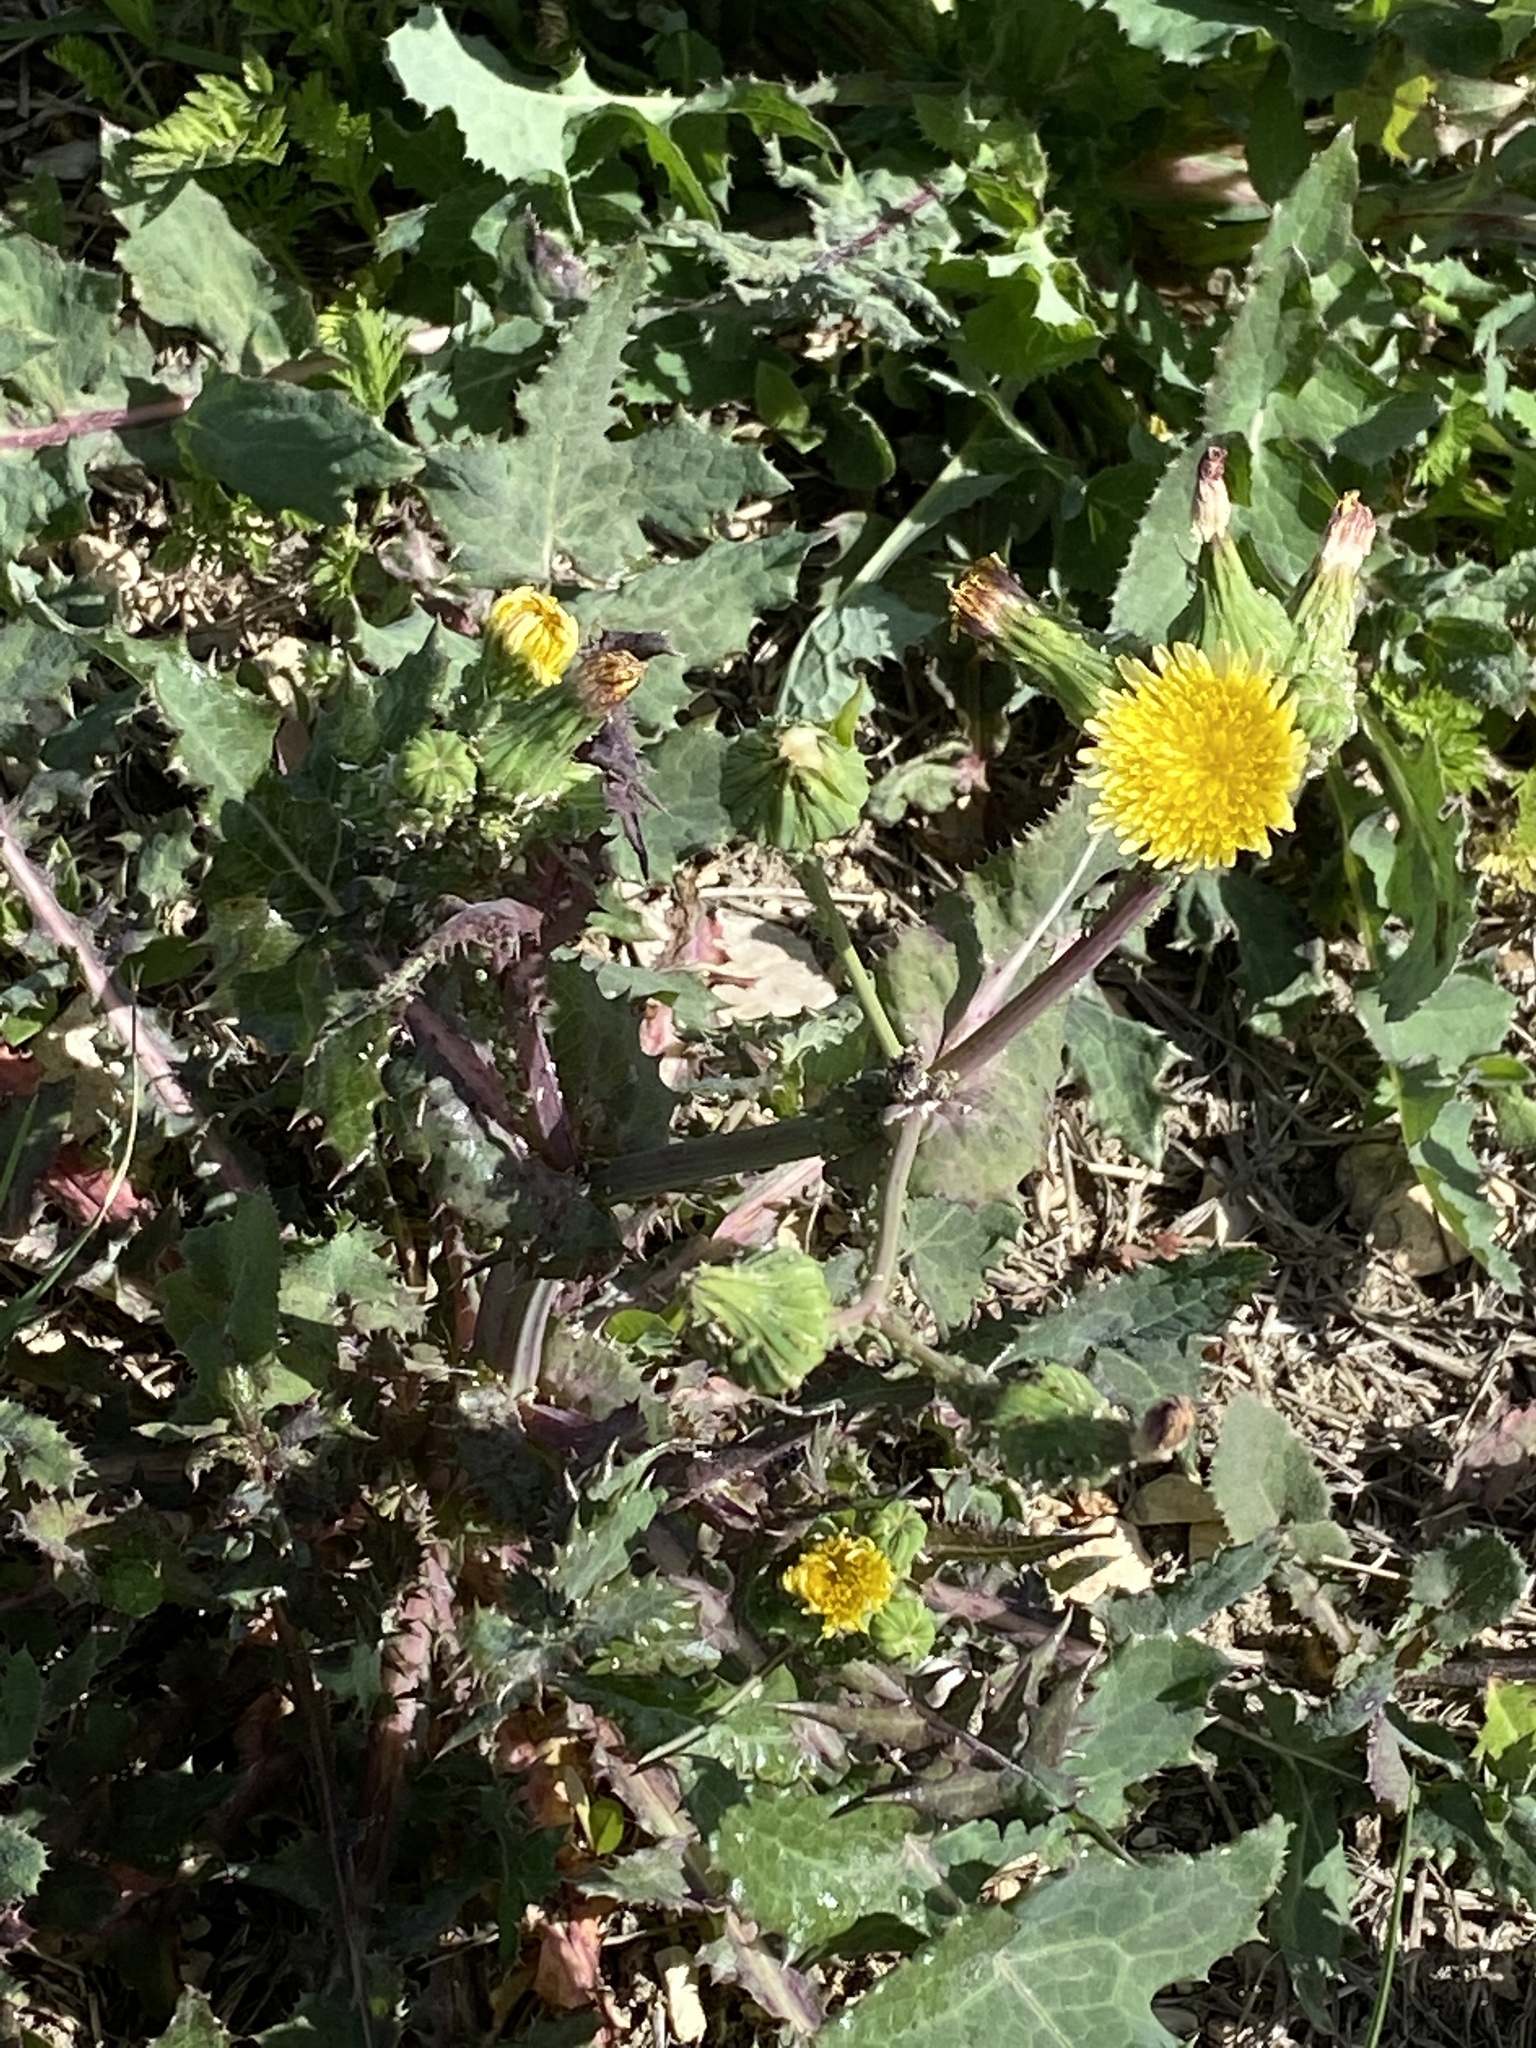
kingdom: Plantae
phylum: Tracheophyta
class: Magnoliopsida
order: Asterales
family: Asteraceae
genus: Sonchus
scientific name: Sonchus asper
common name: Prickly sow-thistle
